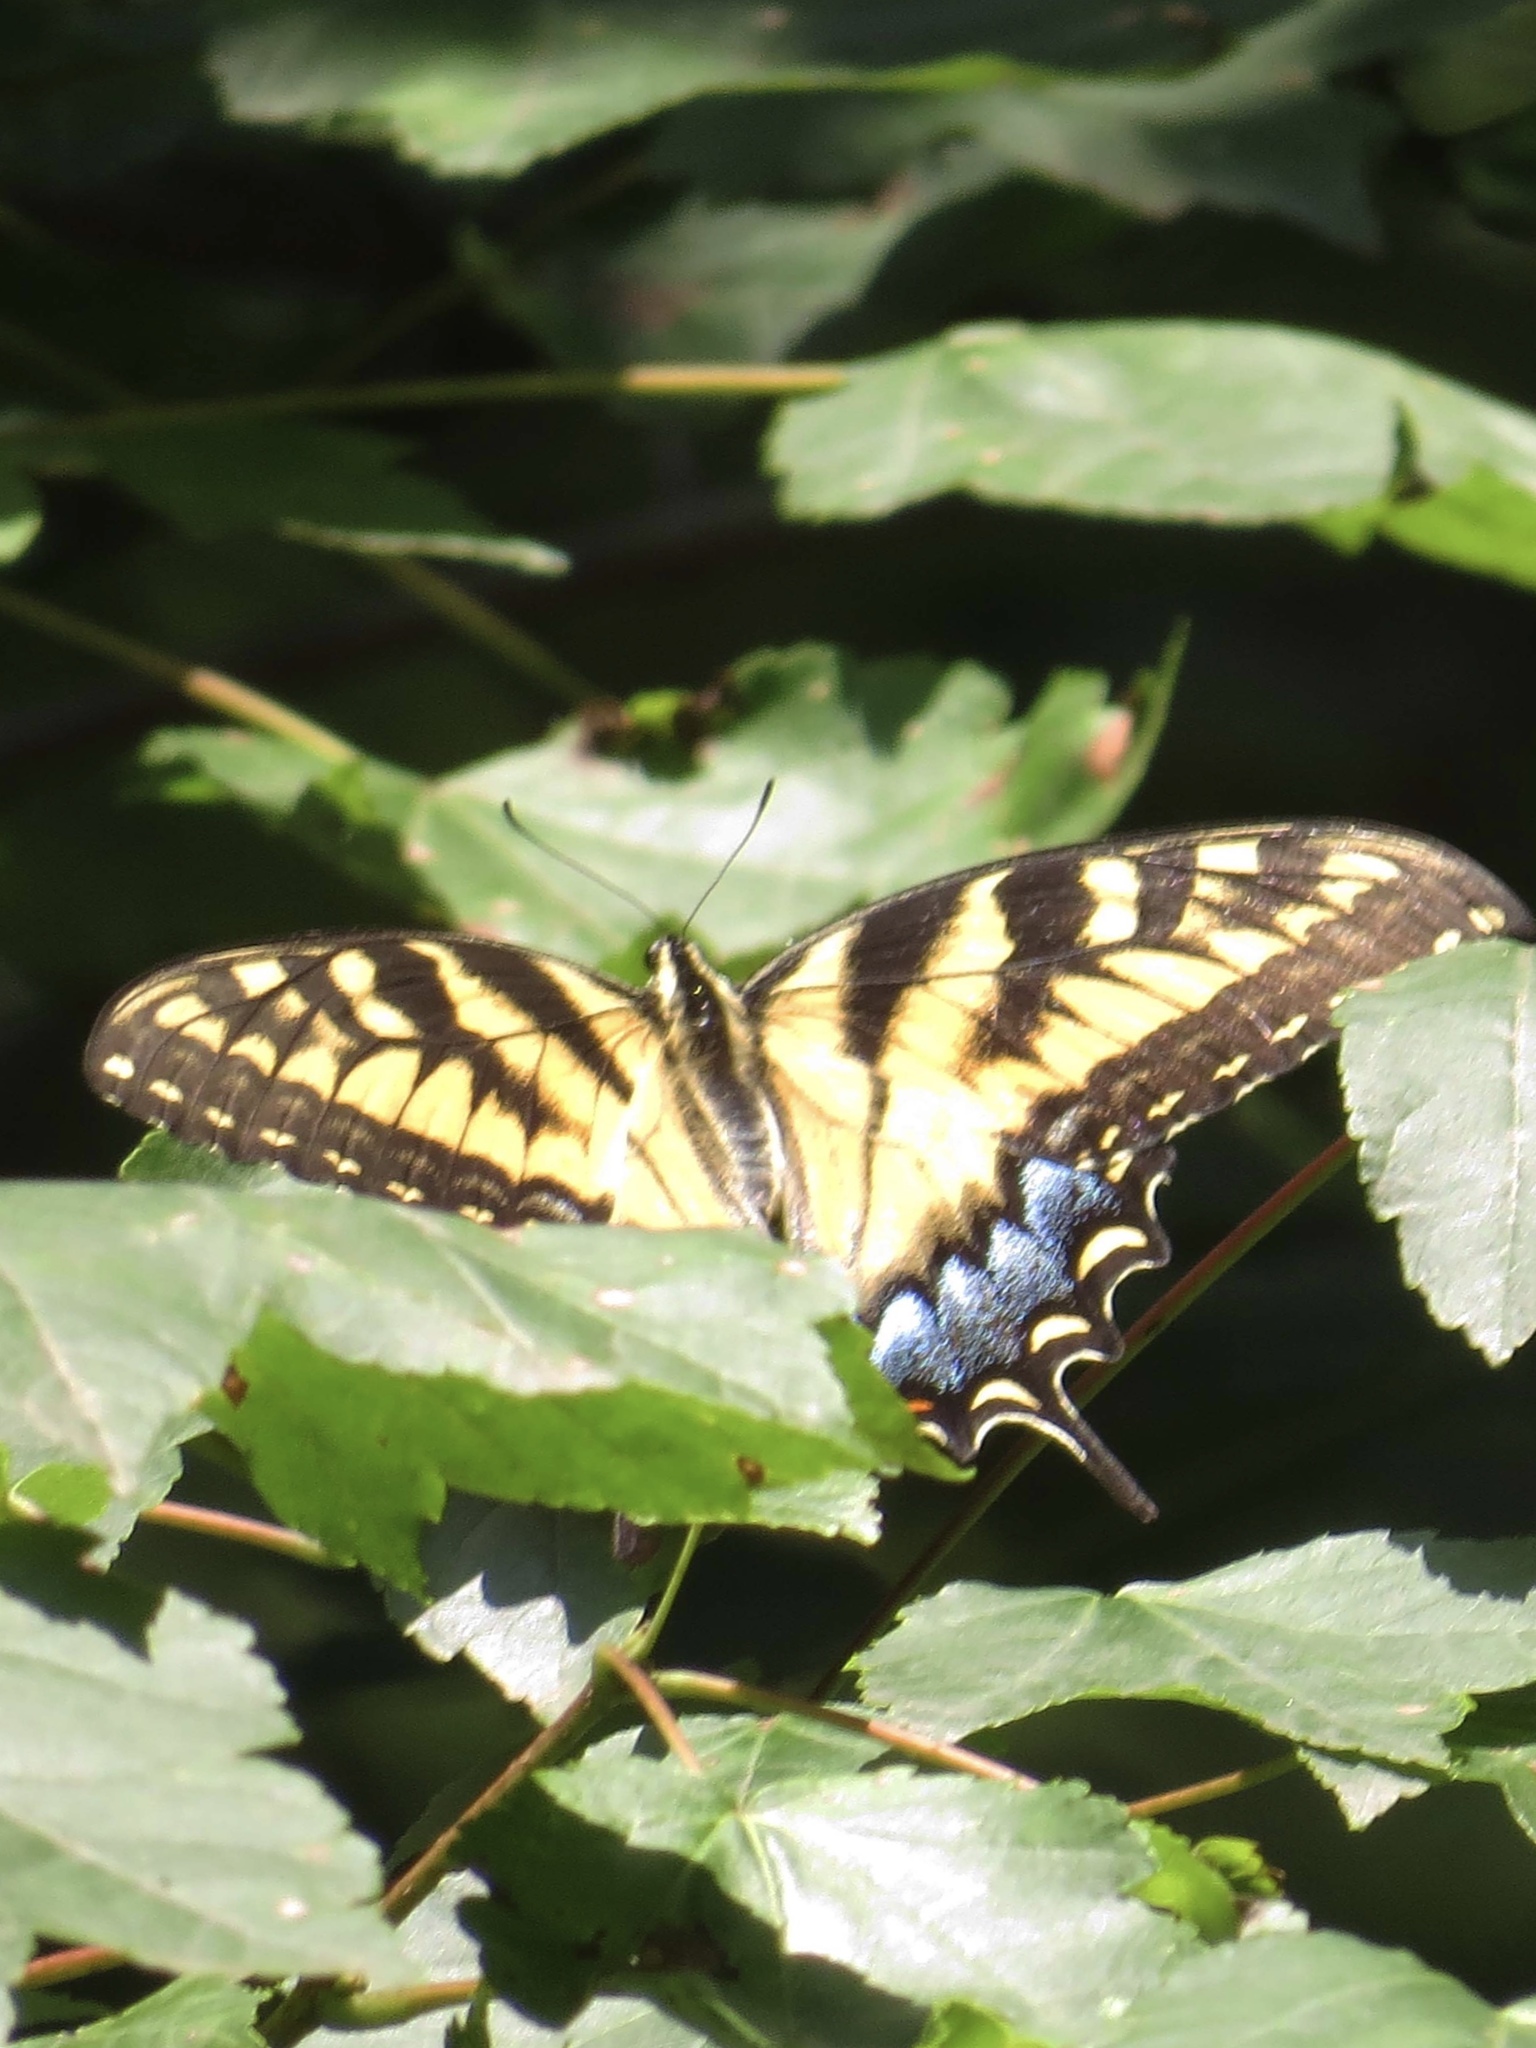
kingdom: Animalia
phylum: Arthropoda
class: Insecta
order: Lepidoptera
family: Papilionidae
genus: Papilio
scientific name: Papilio glaucus
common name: Tiger swallowtail
